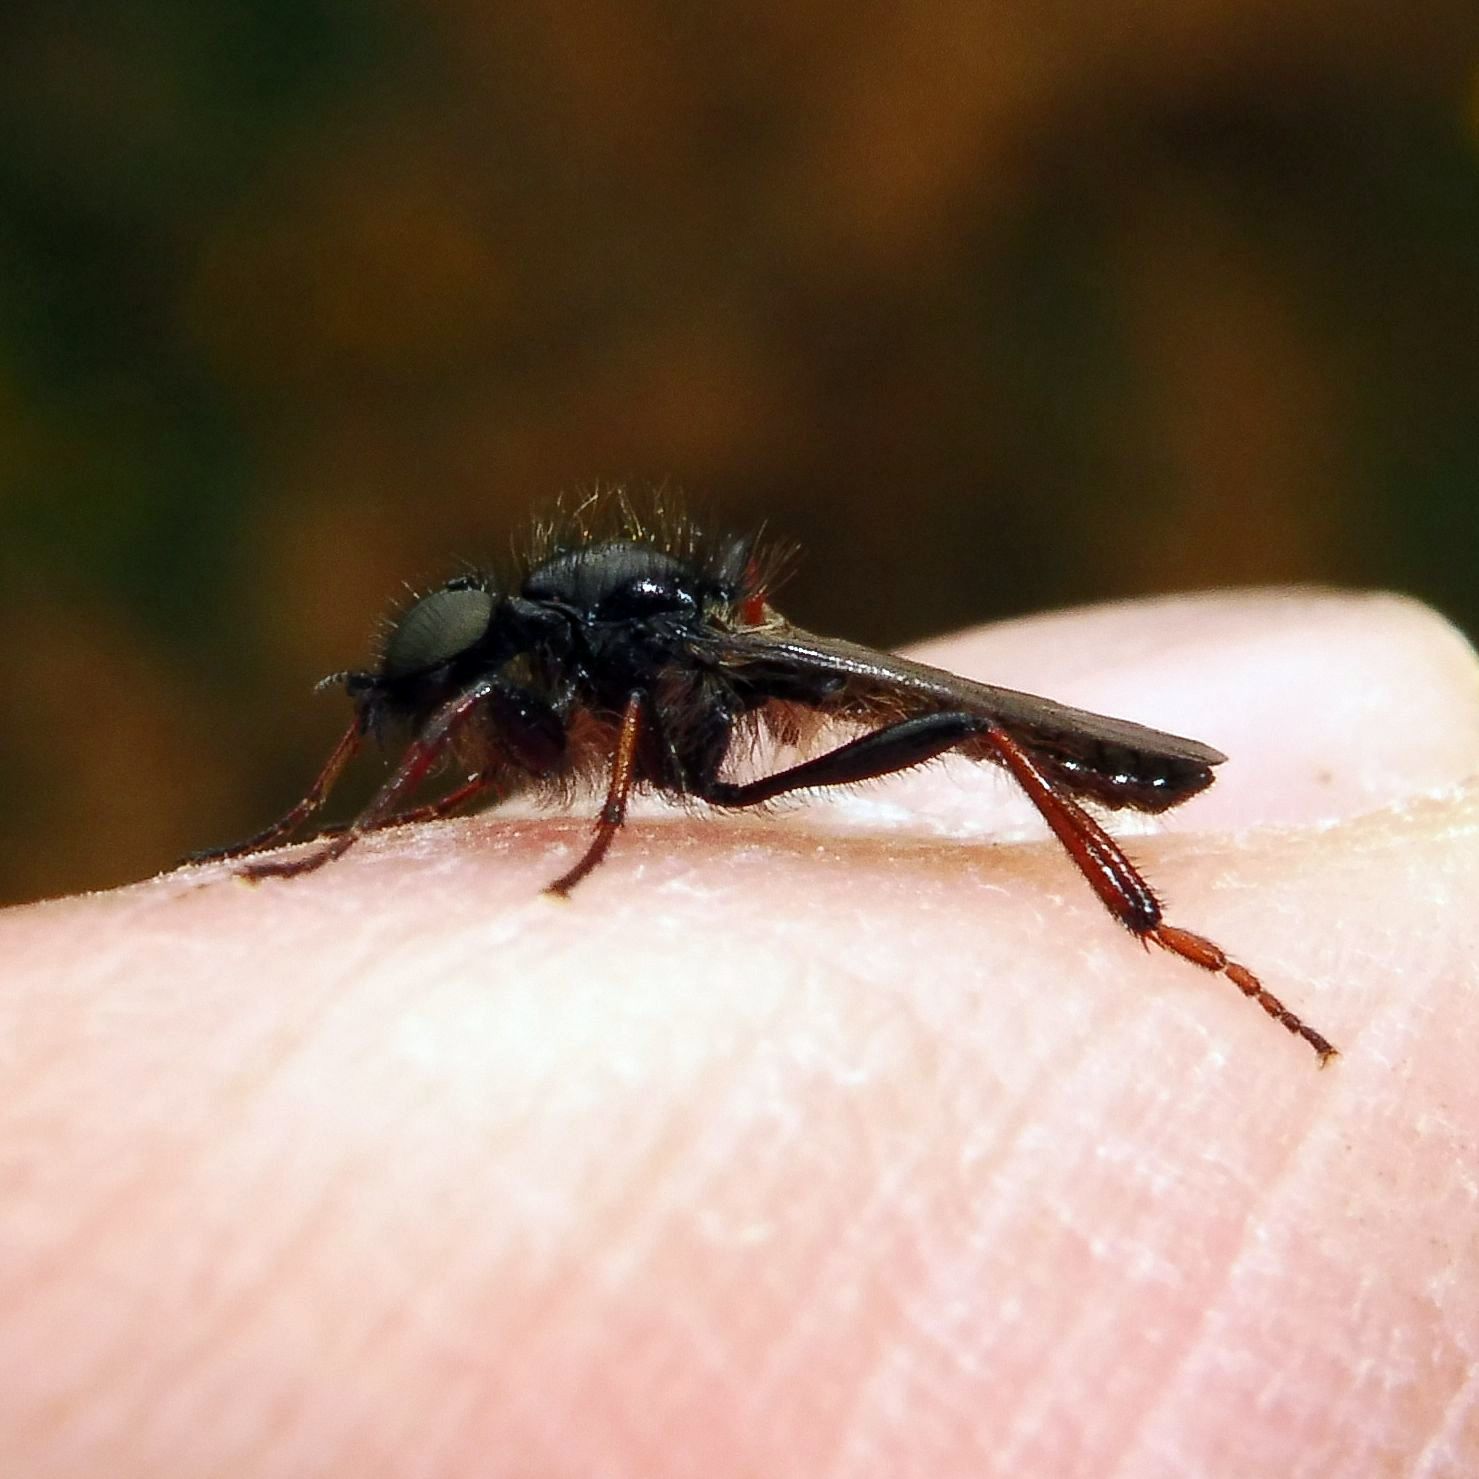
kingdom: Animalia
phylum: Arthropoda
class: Insecta
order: Diptera
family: Bibionidae
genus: Bibio
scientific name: Bibio lanigerus
